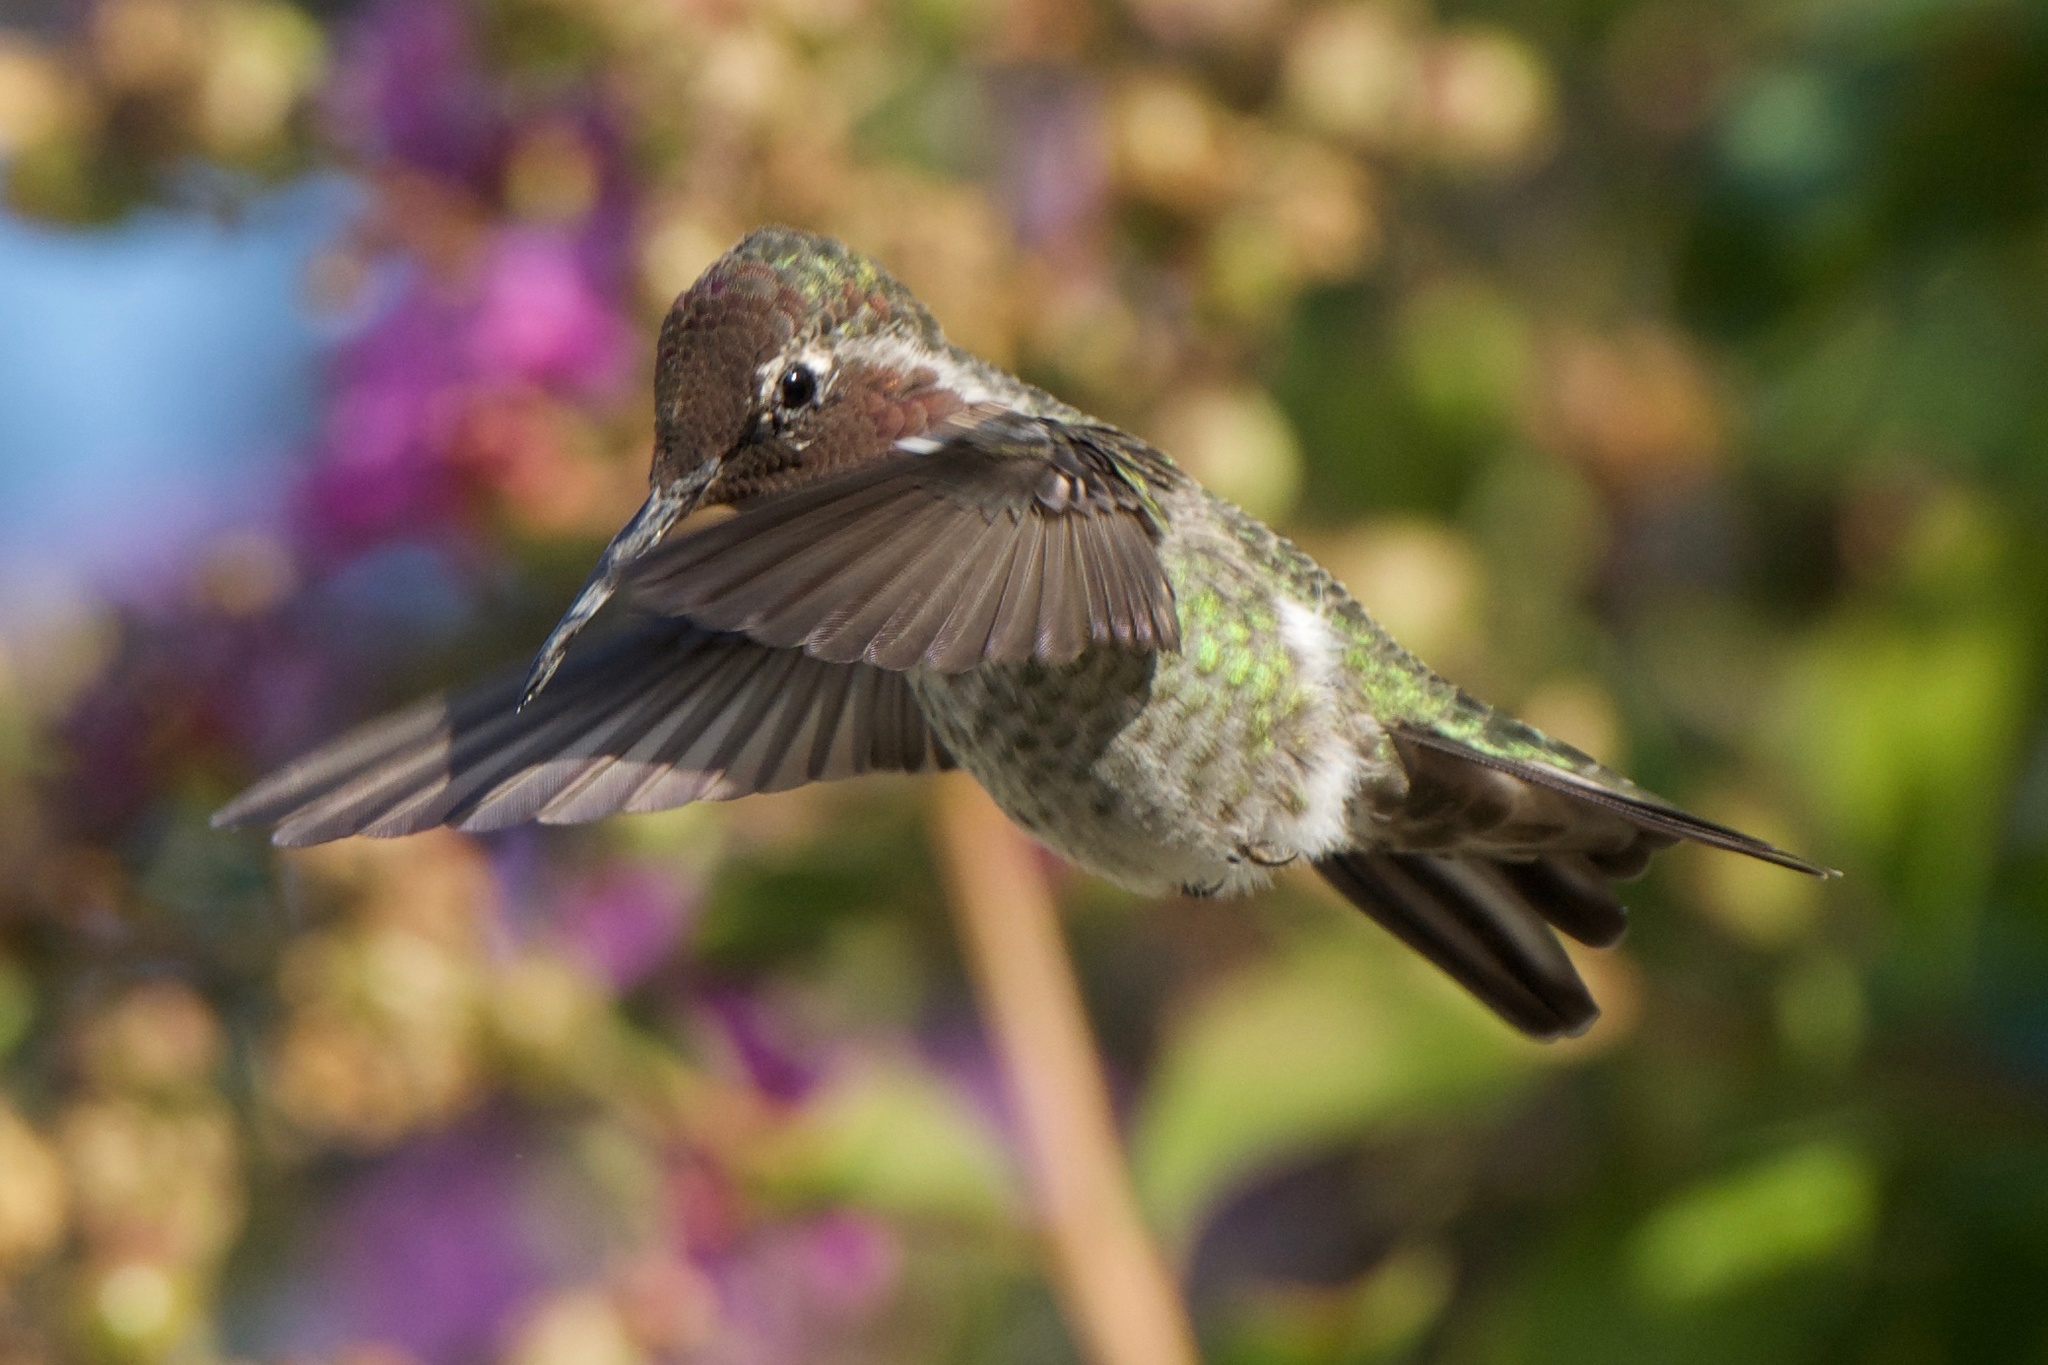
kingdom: Animalia
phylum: Chordata
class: Aves
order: Apodiformes
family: Trochilidae
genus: Calypte
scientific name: Calypte anna
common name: Anna's hummingbird
